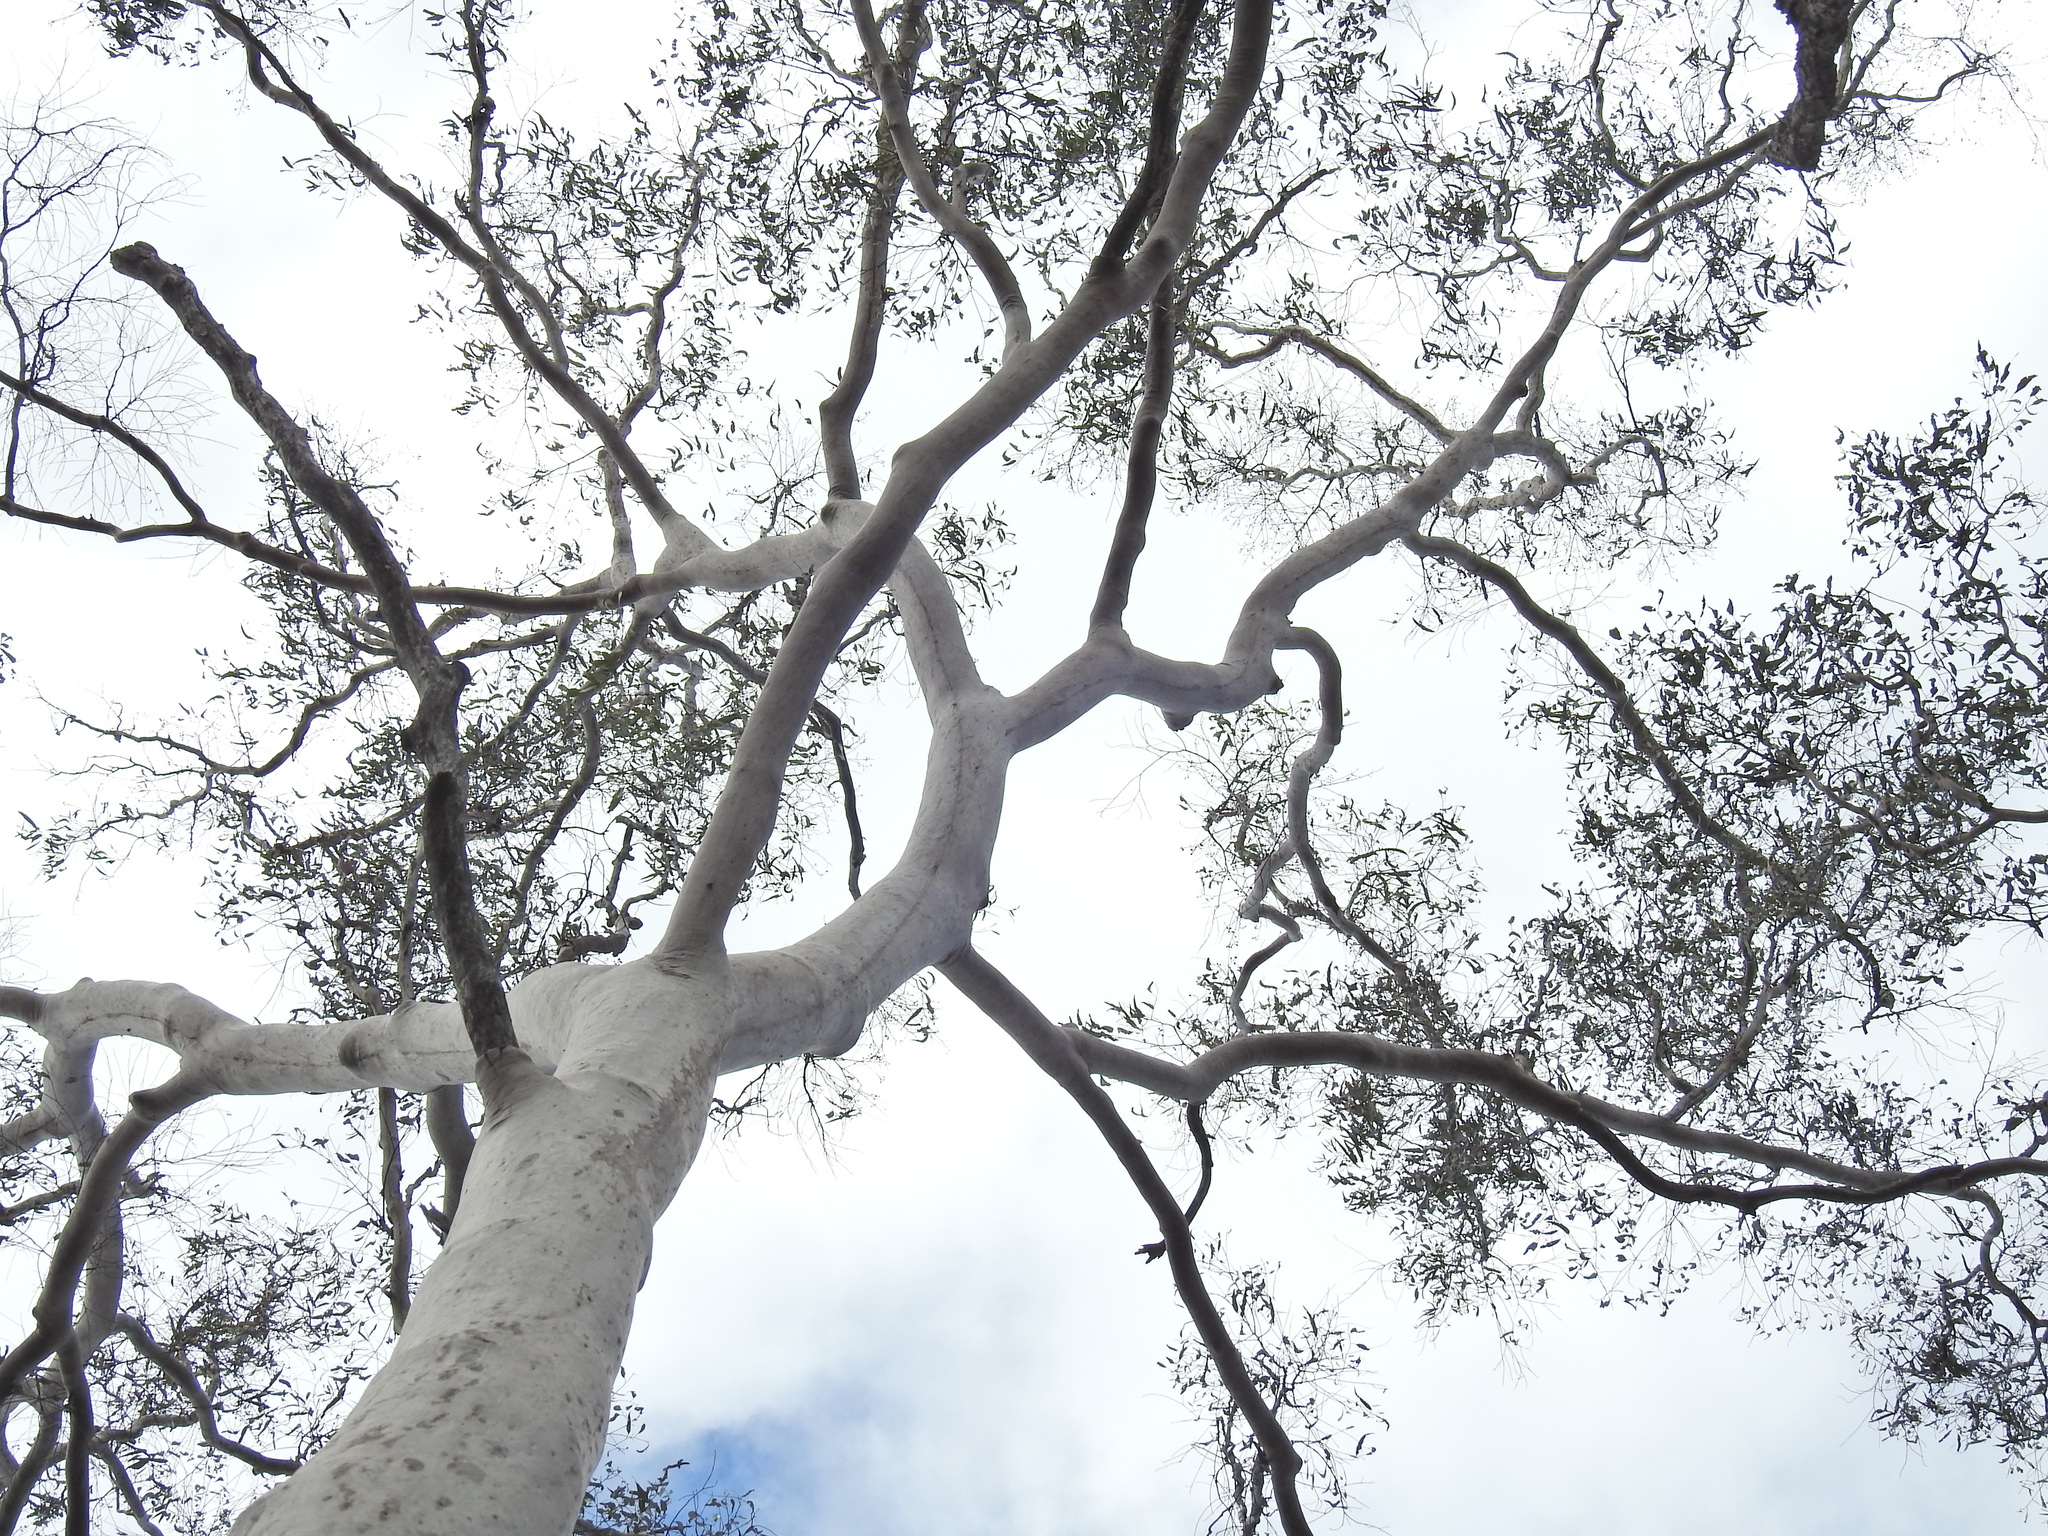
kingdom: Plantae
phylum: Tracheophyta
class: Magnoliopsida
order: Myrtales
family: Myrtaceae
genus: Corymbia
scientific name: Corymbia citriodora
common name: Lemonscented gum
